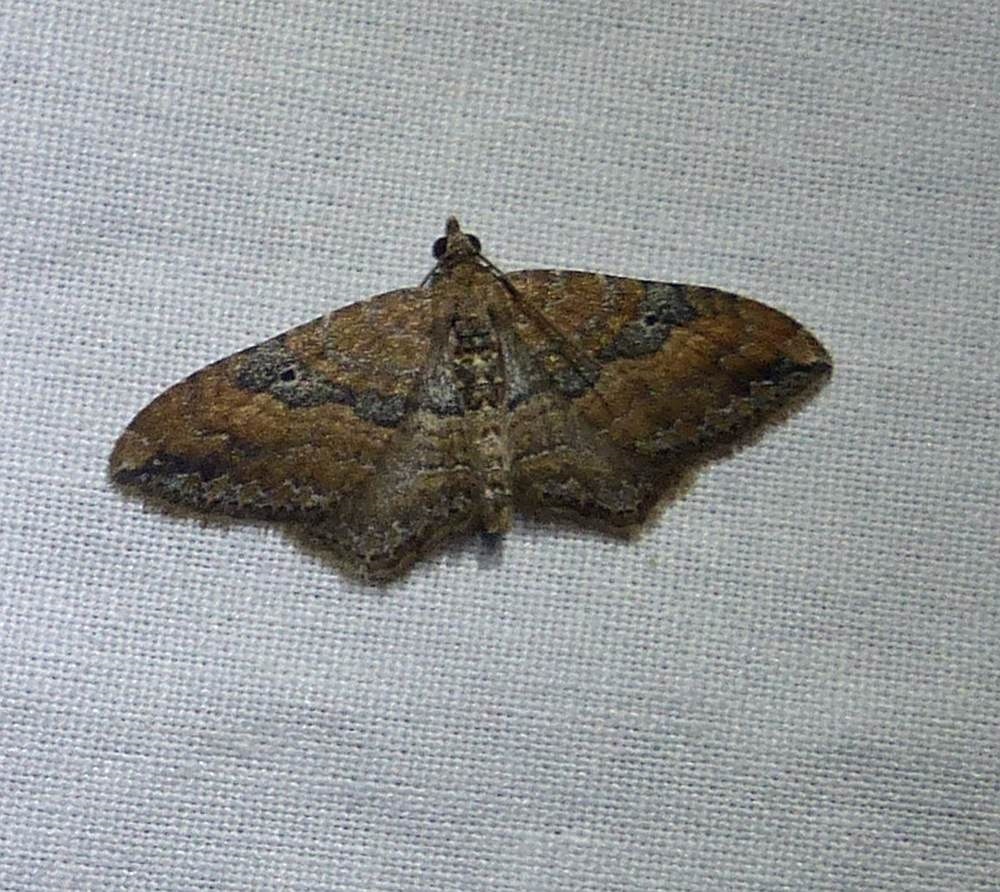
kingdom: Animalia
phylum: Arthropoda
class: Insecta
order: Lepidoptera
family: Geometridae
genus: Orthonama
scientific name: Orthonama obstipata
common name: The gem
